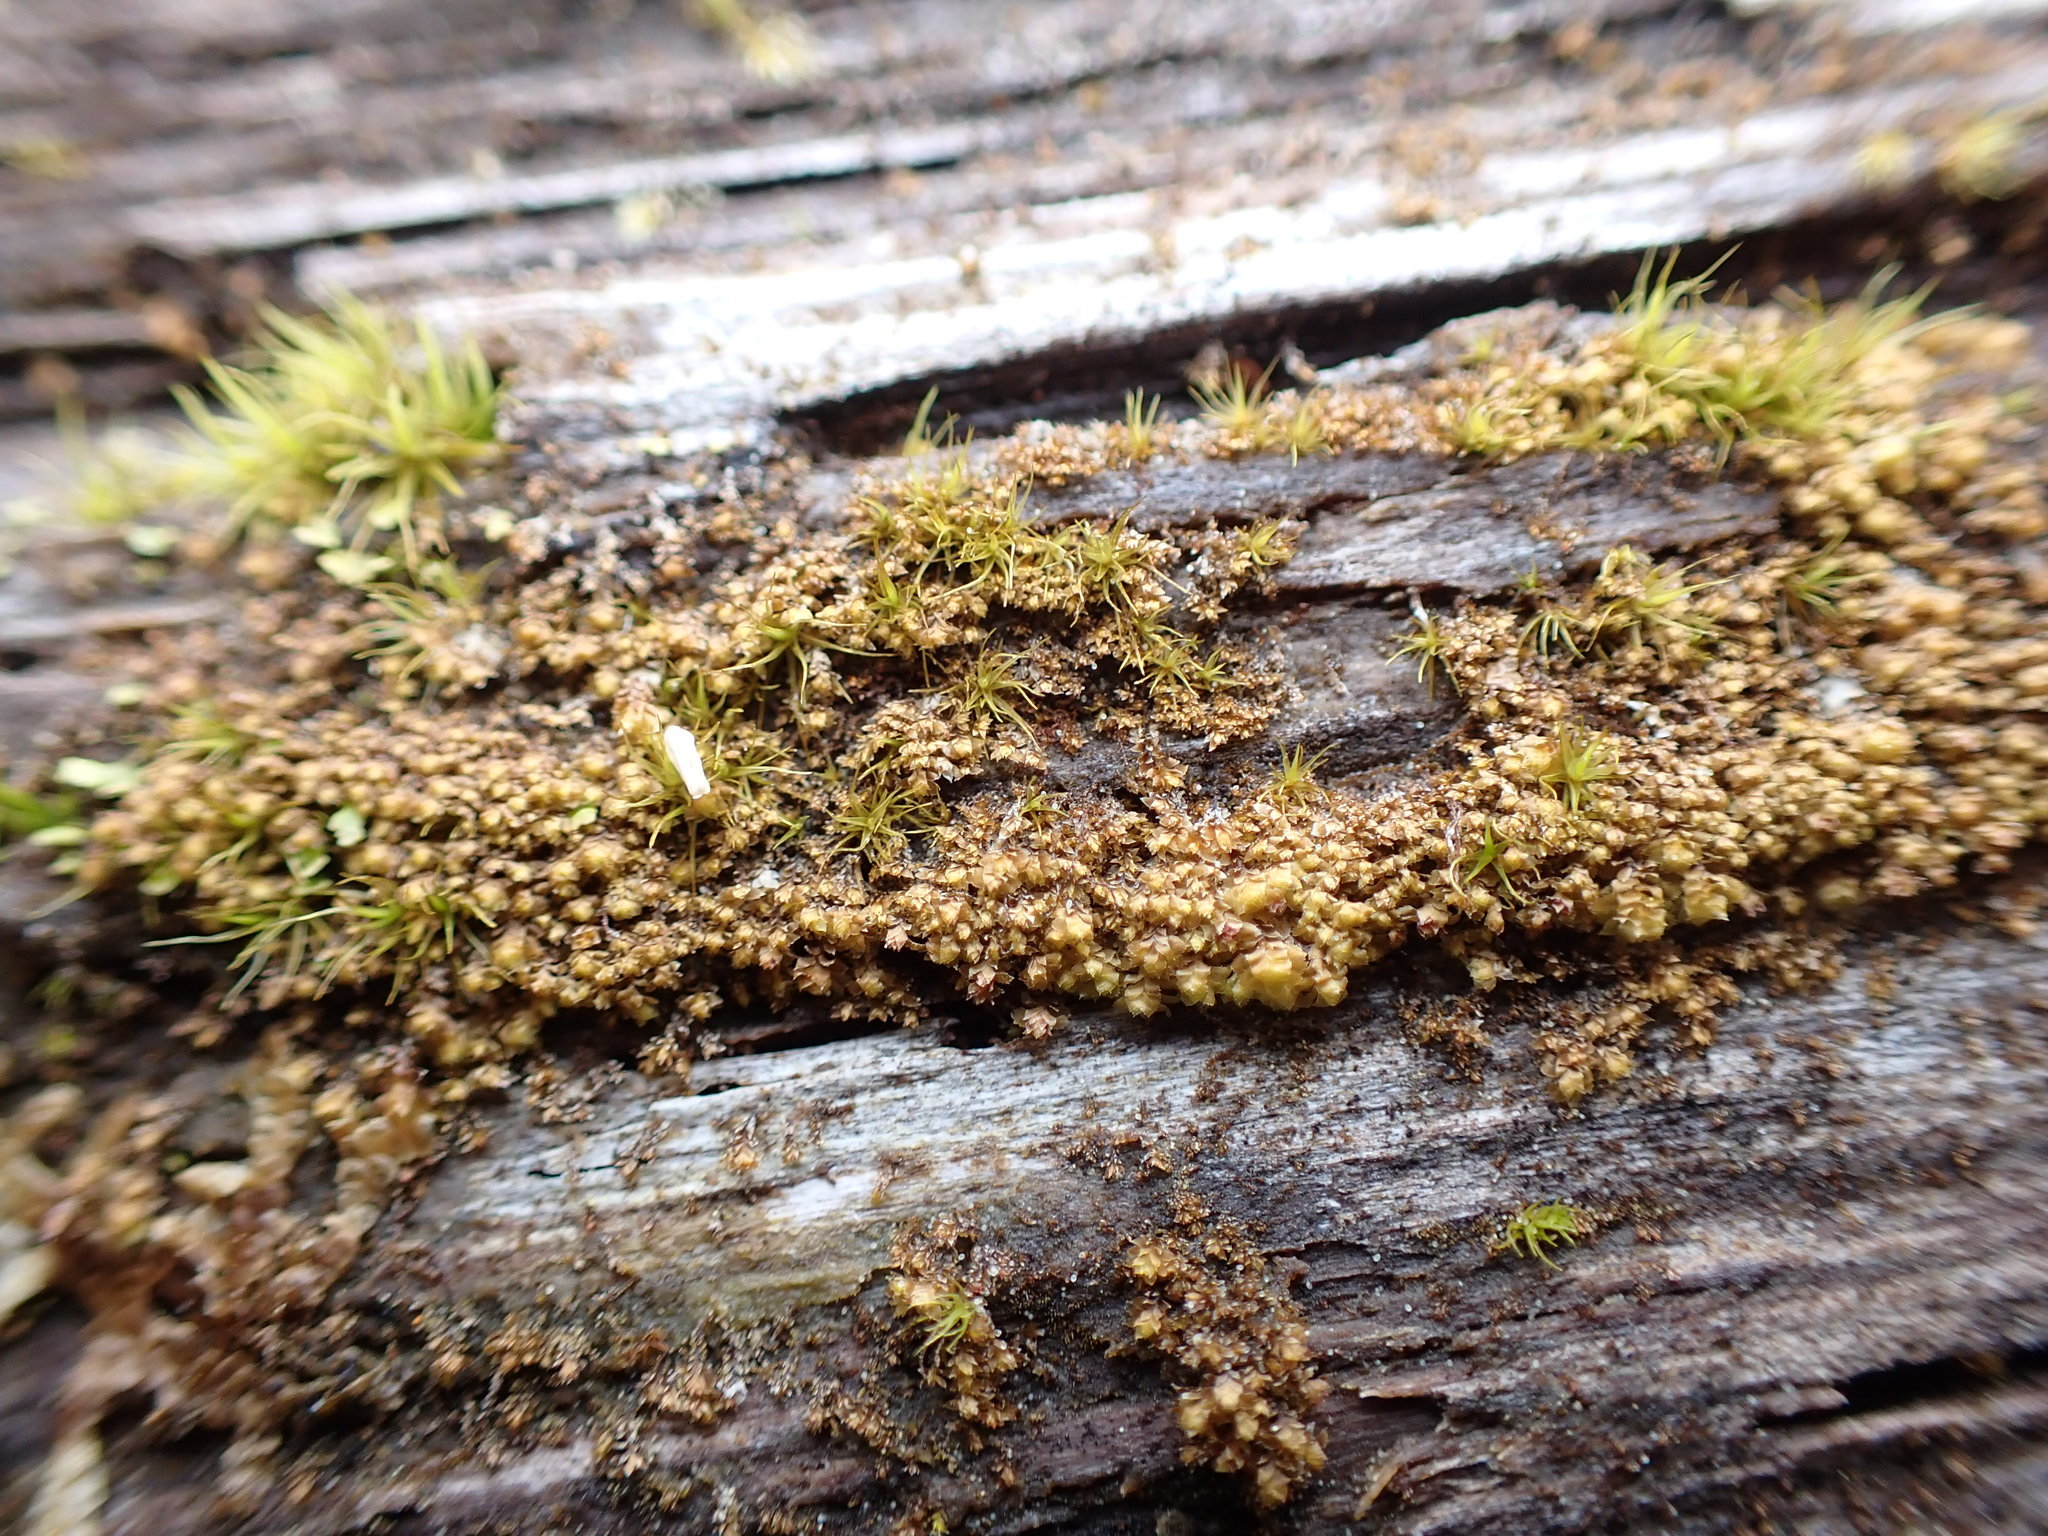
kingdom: Plantae
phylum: Marchantiophyta
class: Jungermanniopsida
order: Jungermanniales
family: Scapaniaceae
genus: Scapania
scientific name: Scapania umbrosa
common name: Shady earwort
